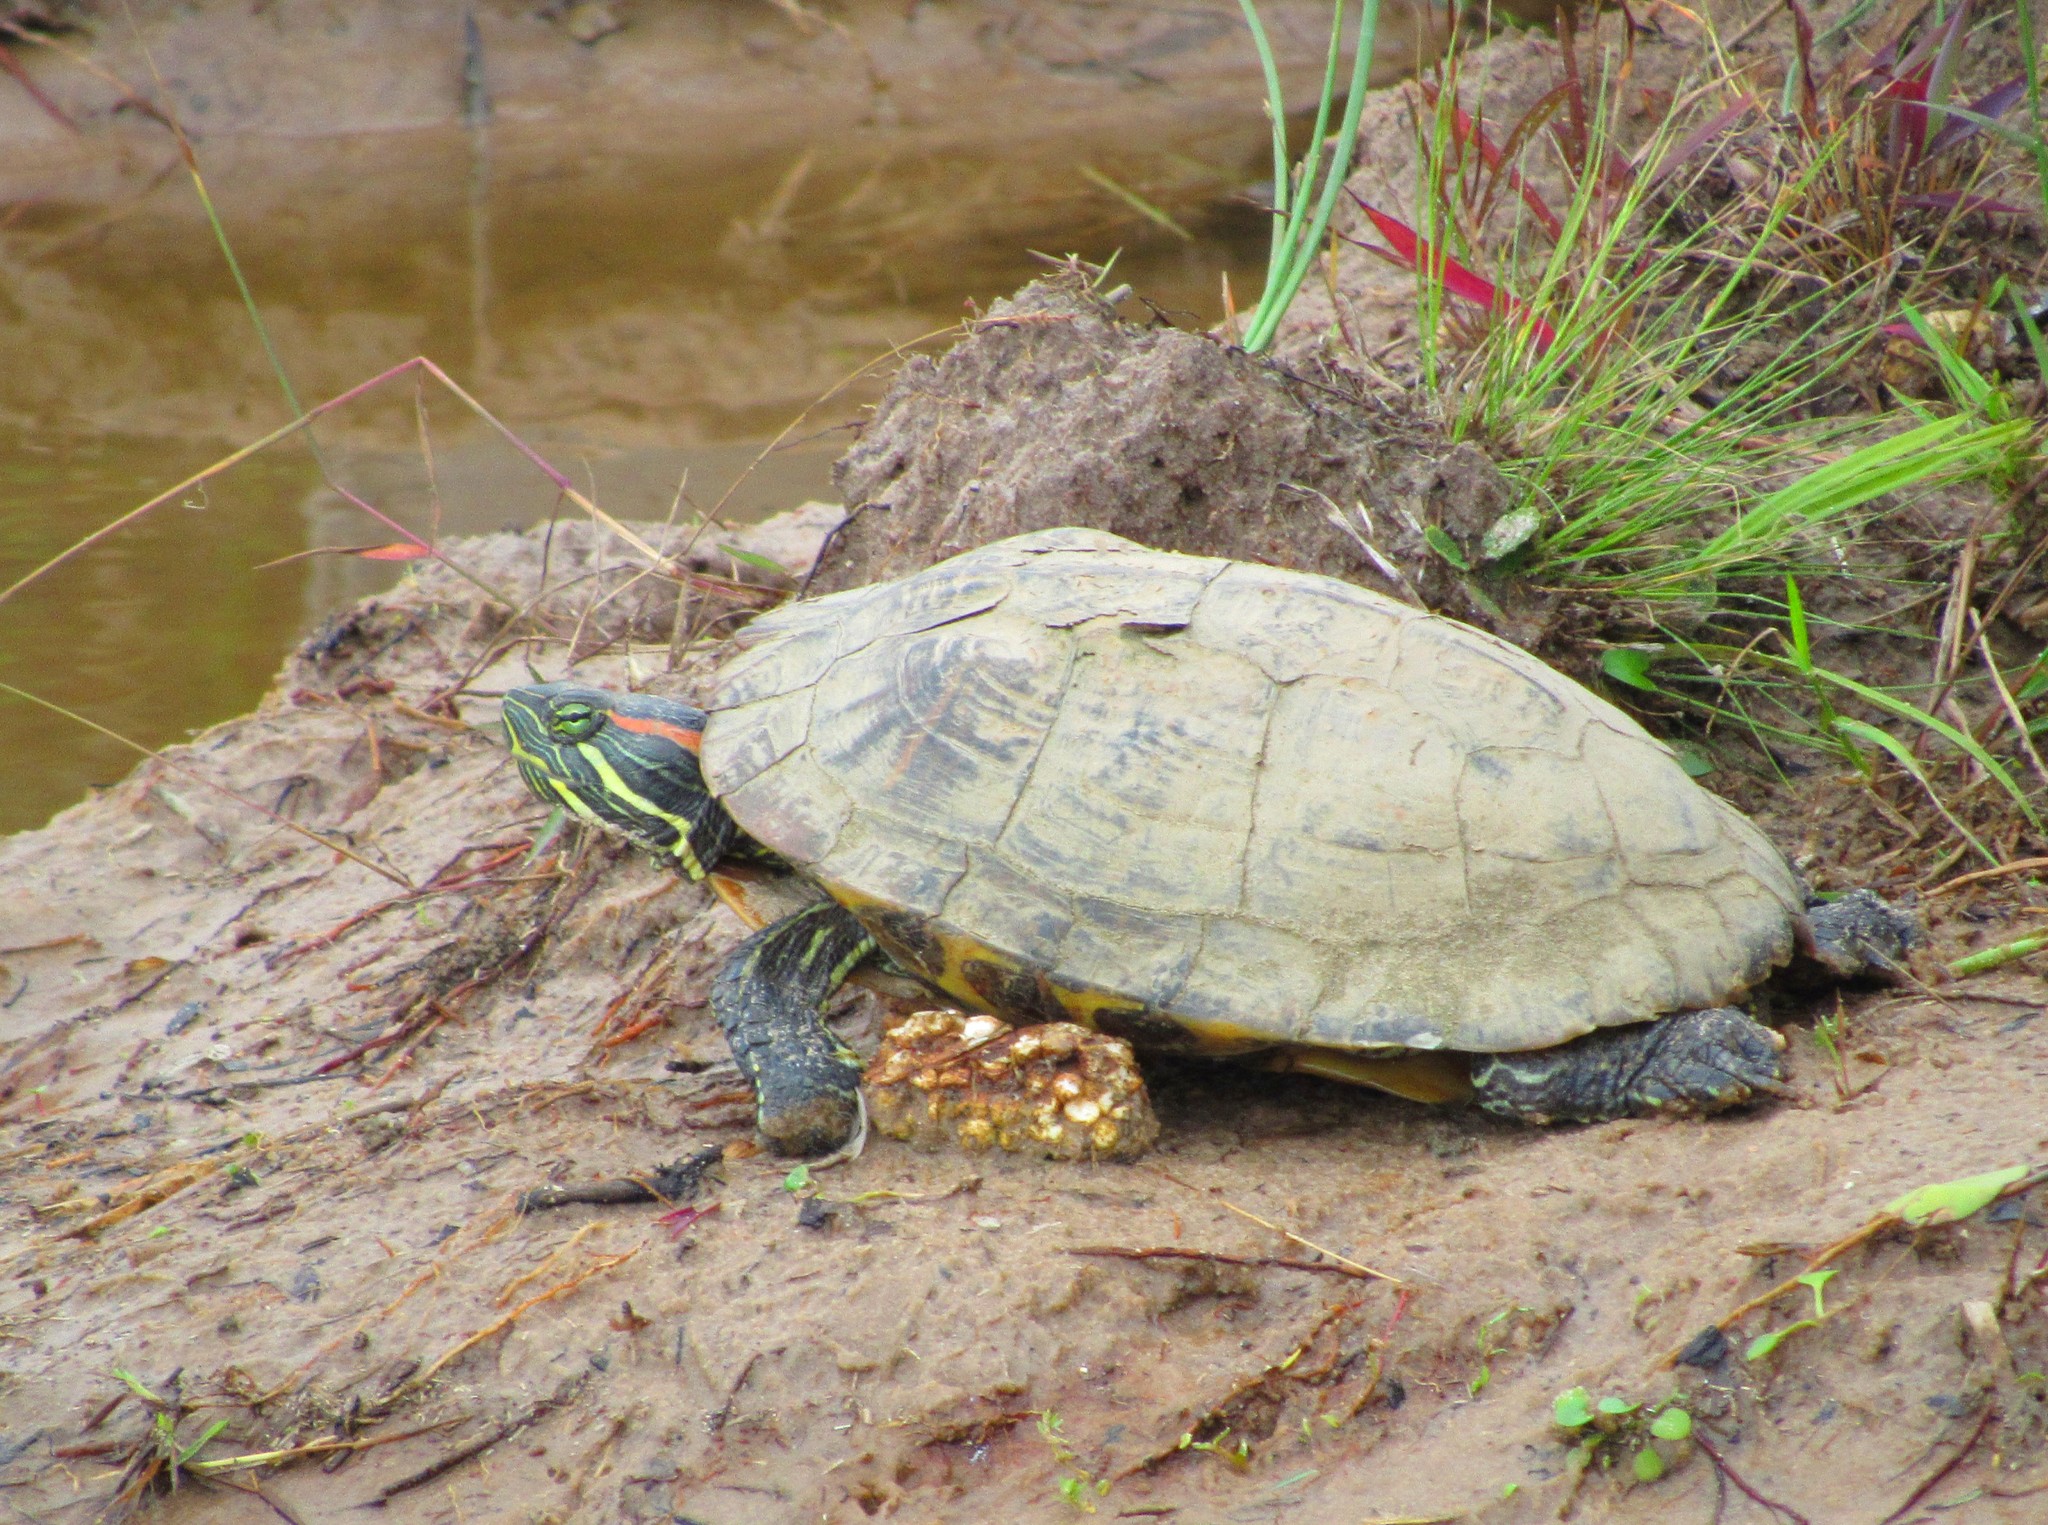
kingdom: Animalia
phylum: Chordata
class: Testudines
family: Emydidae
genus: Trachemys
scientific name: Trachemys scripta
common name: Slider
